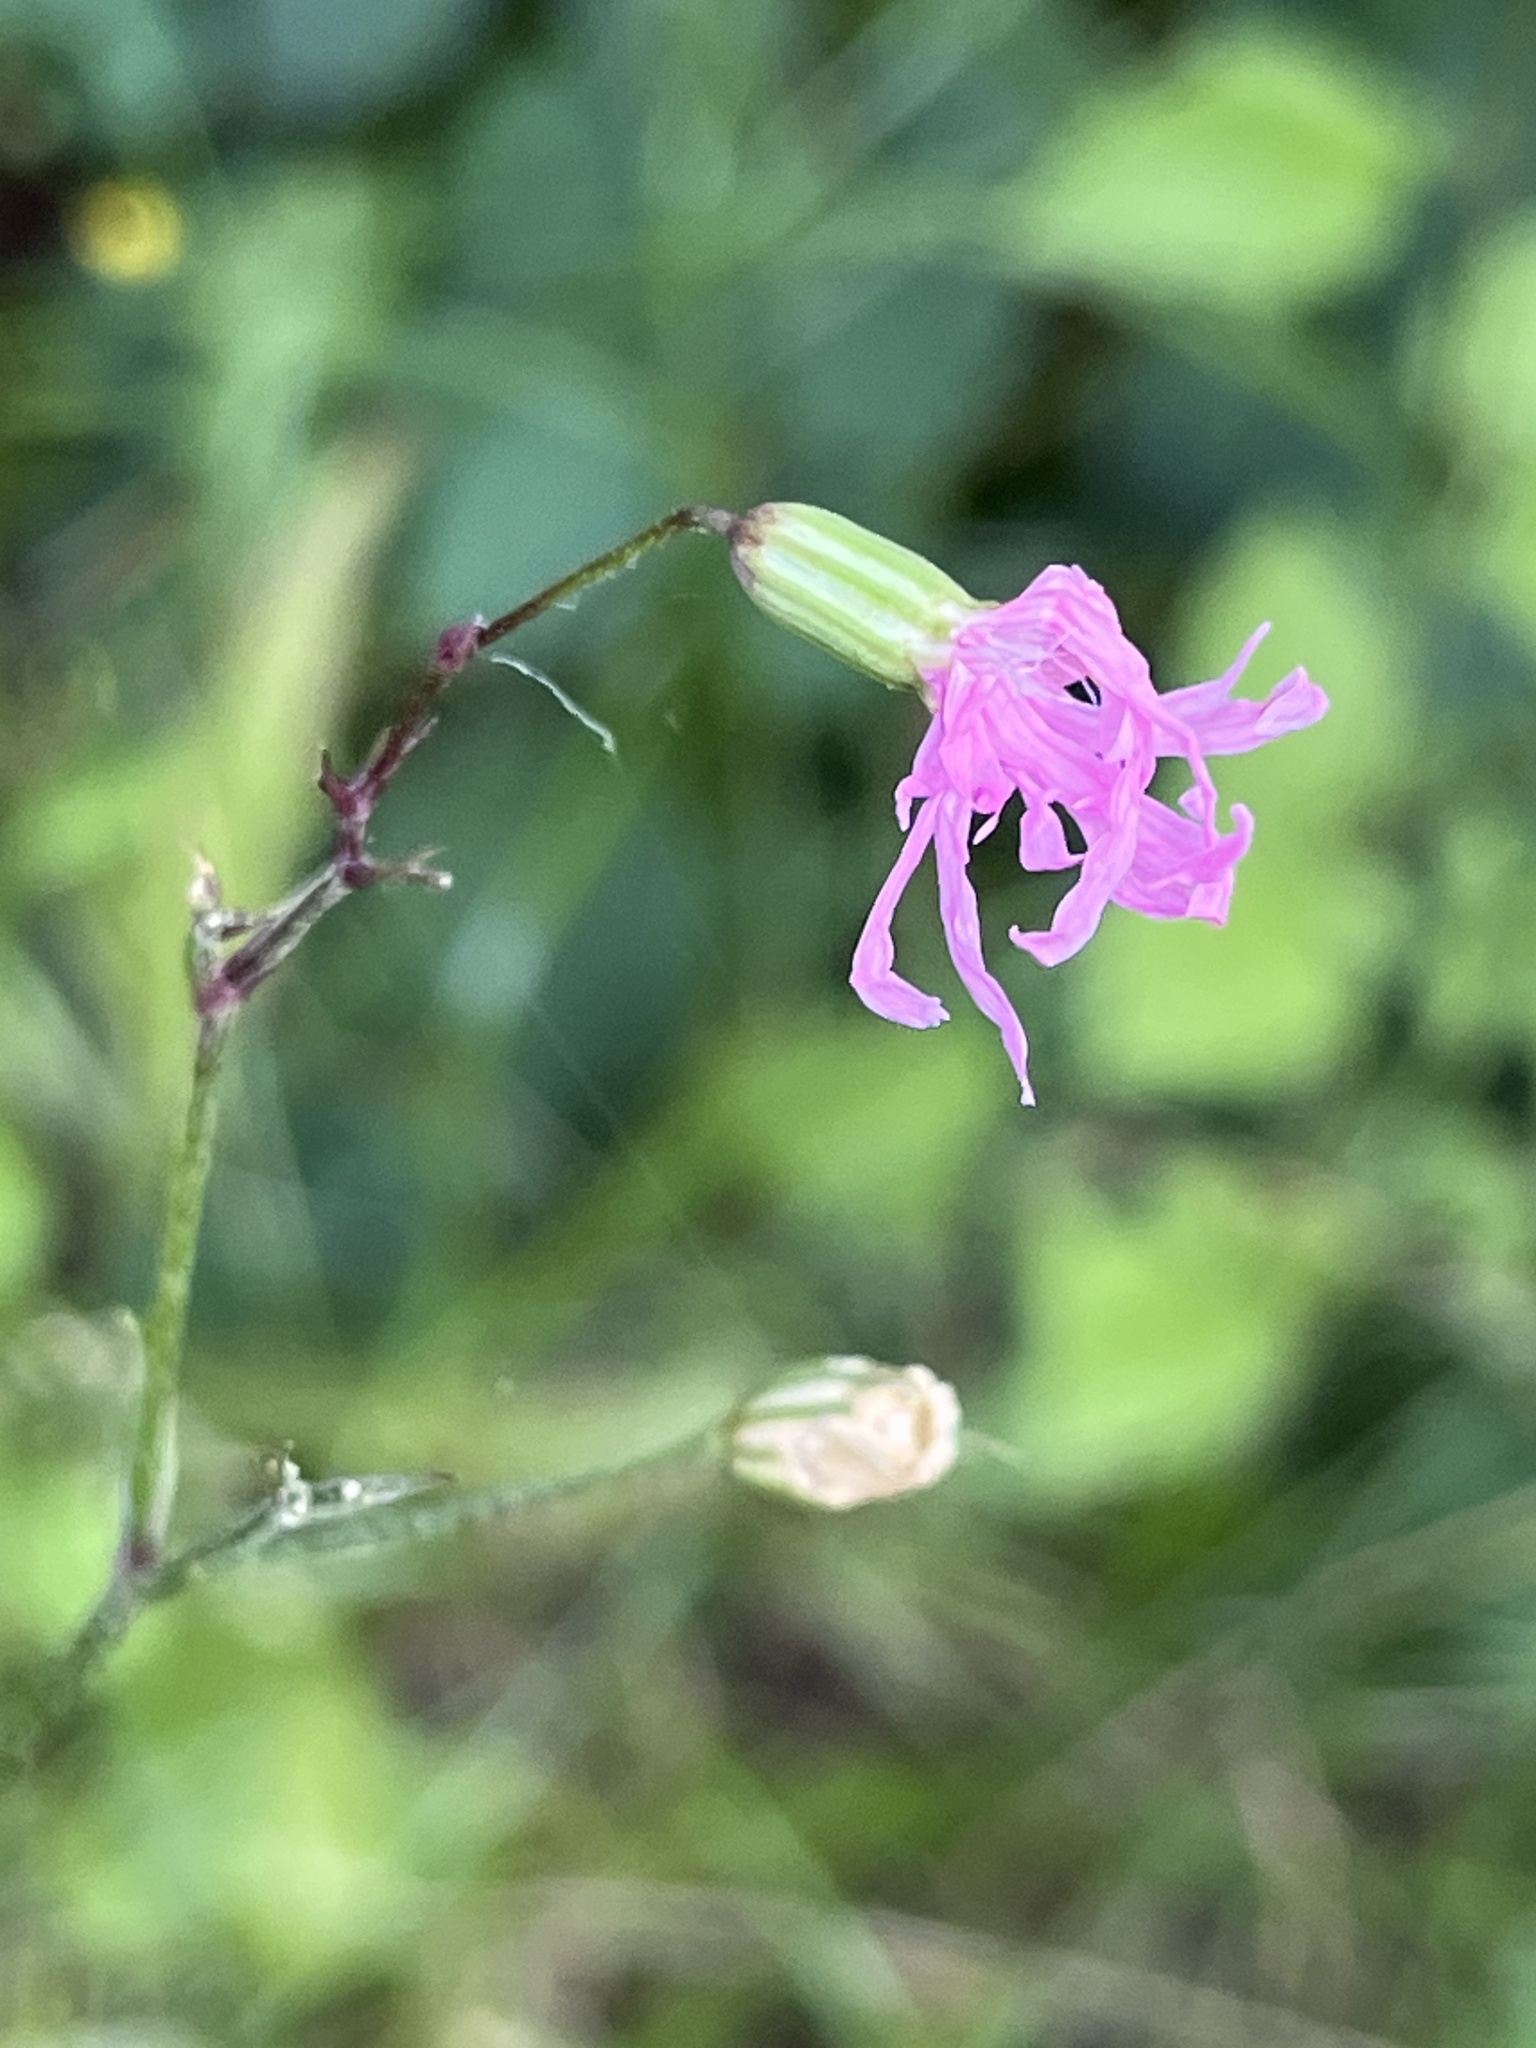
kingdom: Plantae
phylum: Tracheophyta
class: Magnoliopsida
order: Caryophyllales
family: Caryophyllaceae
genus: Silene
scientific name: Silene flos-cuculi
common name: Ragged-robin
